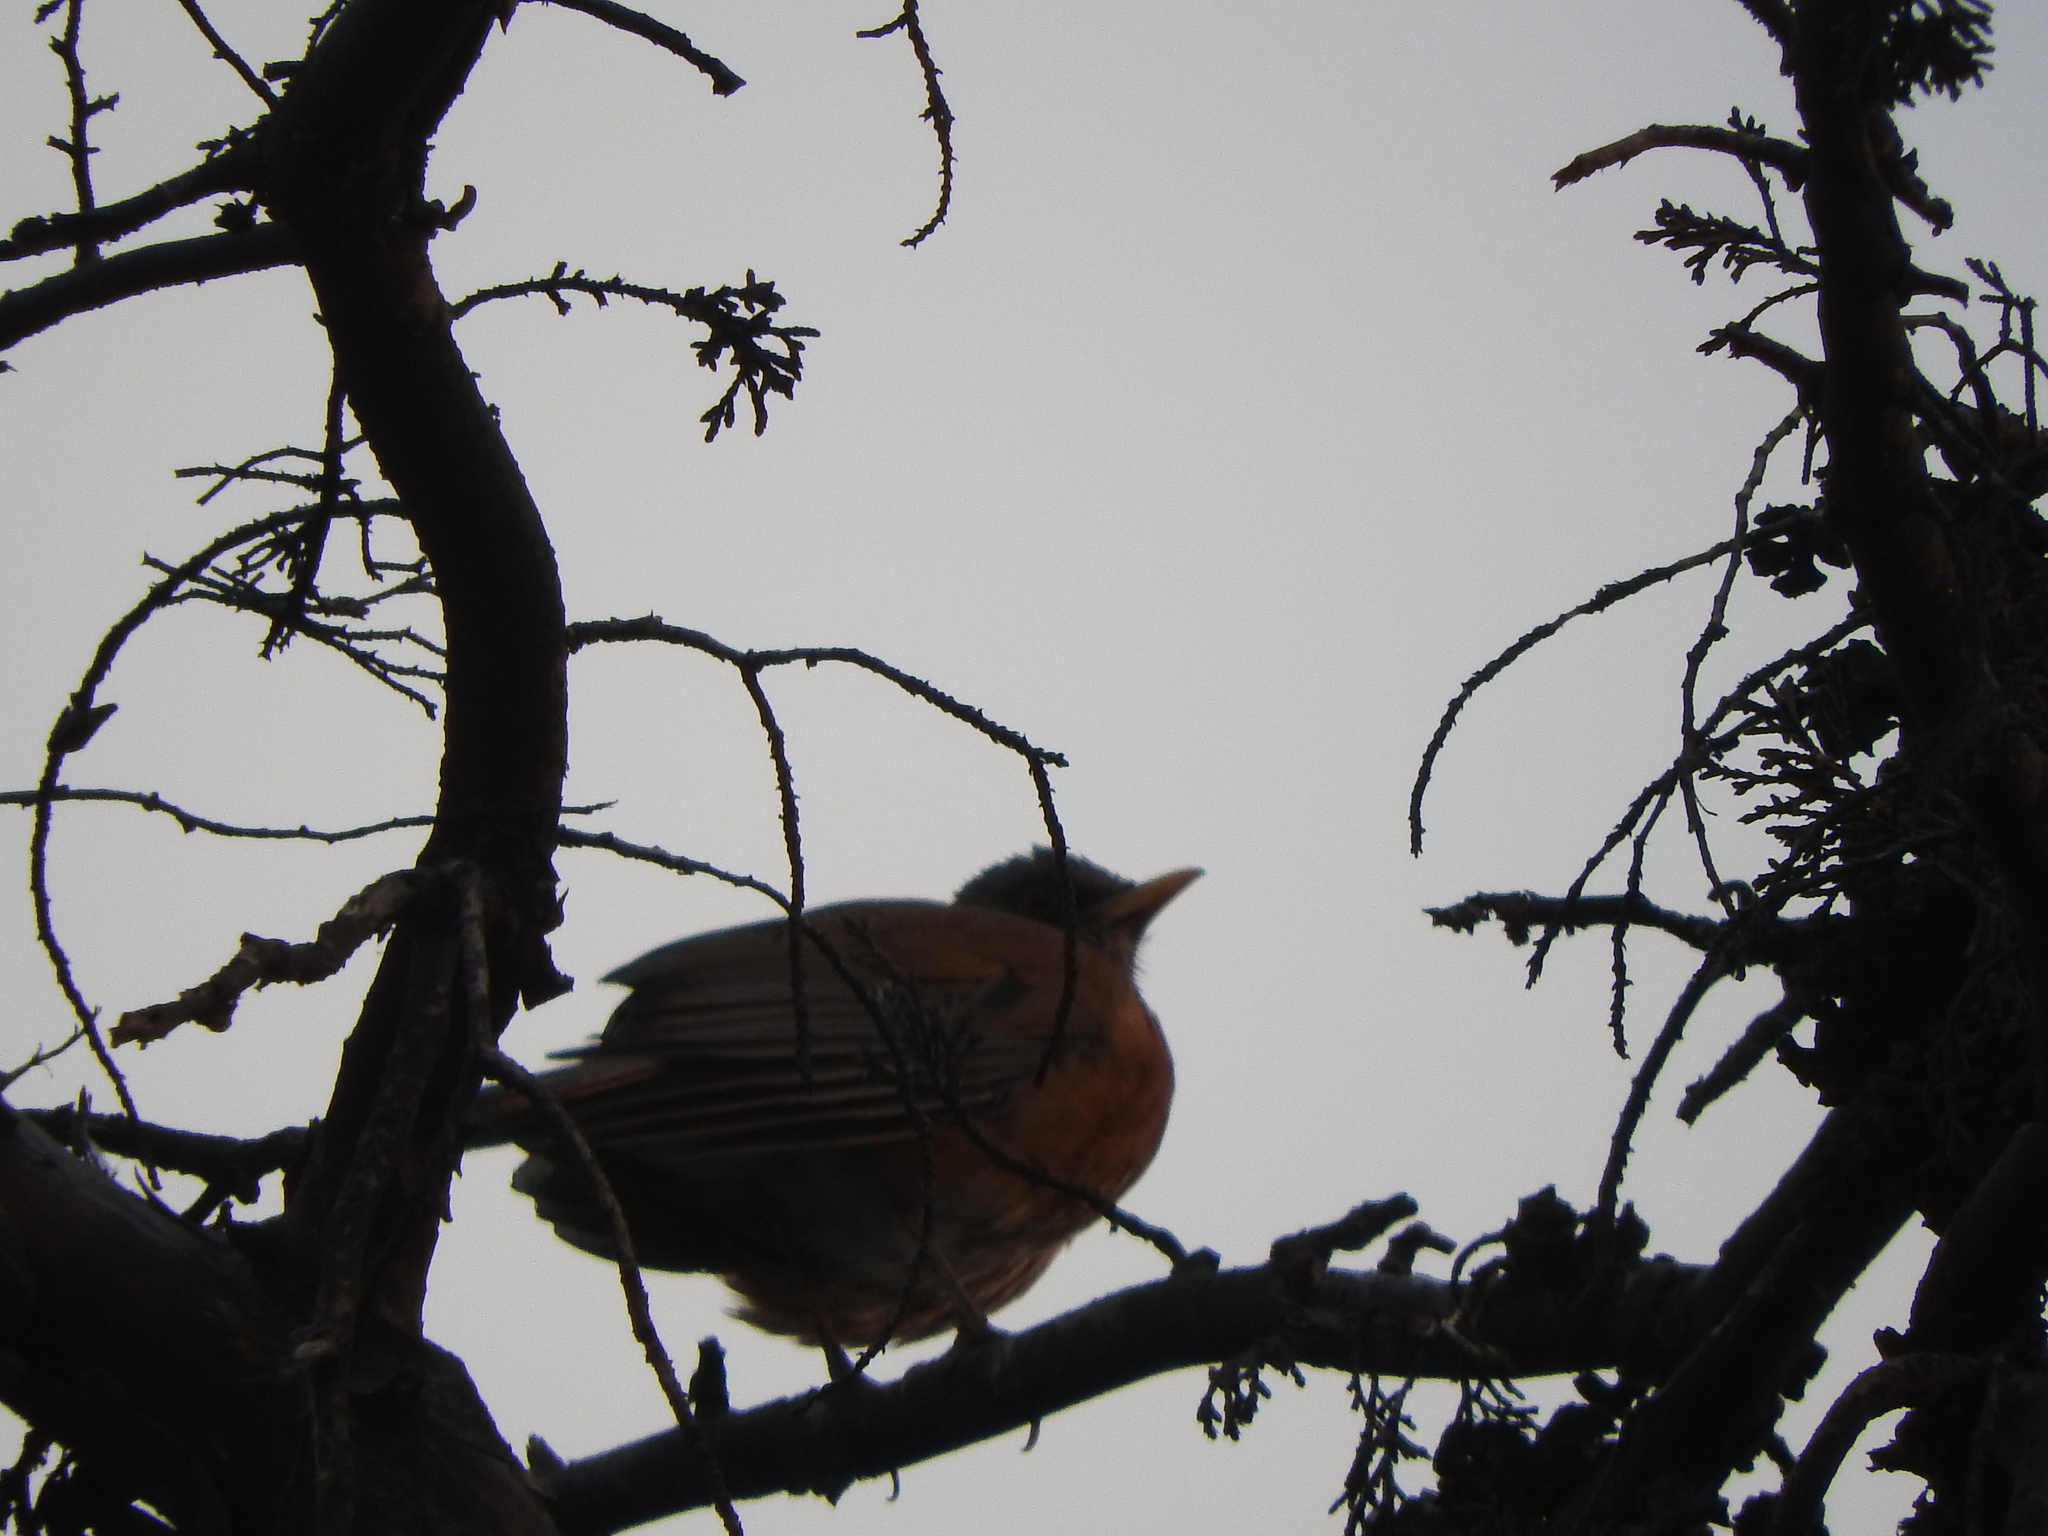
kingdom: Animalia
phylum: Chordata
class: Aves
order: Passeriformes
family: Turdidae
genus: Turdus
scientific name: Turdus rufopalliatus
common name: Rufous-backed robin
